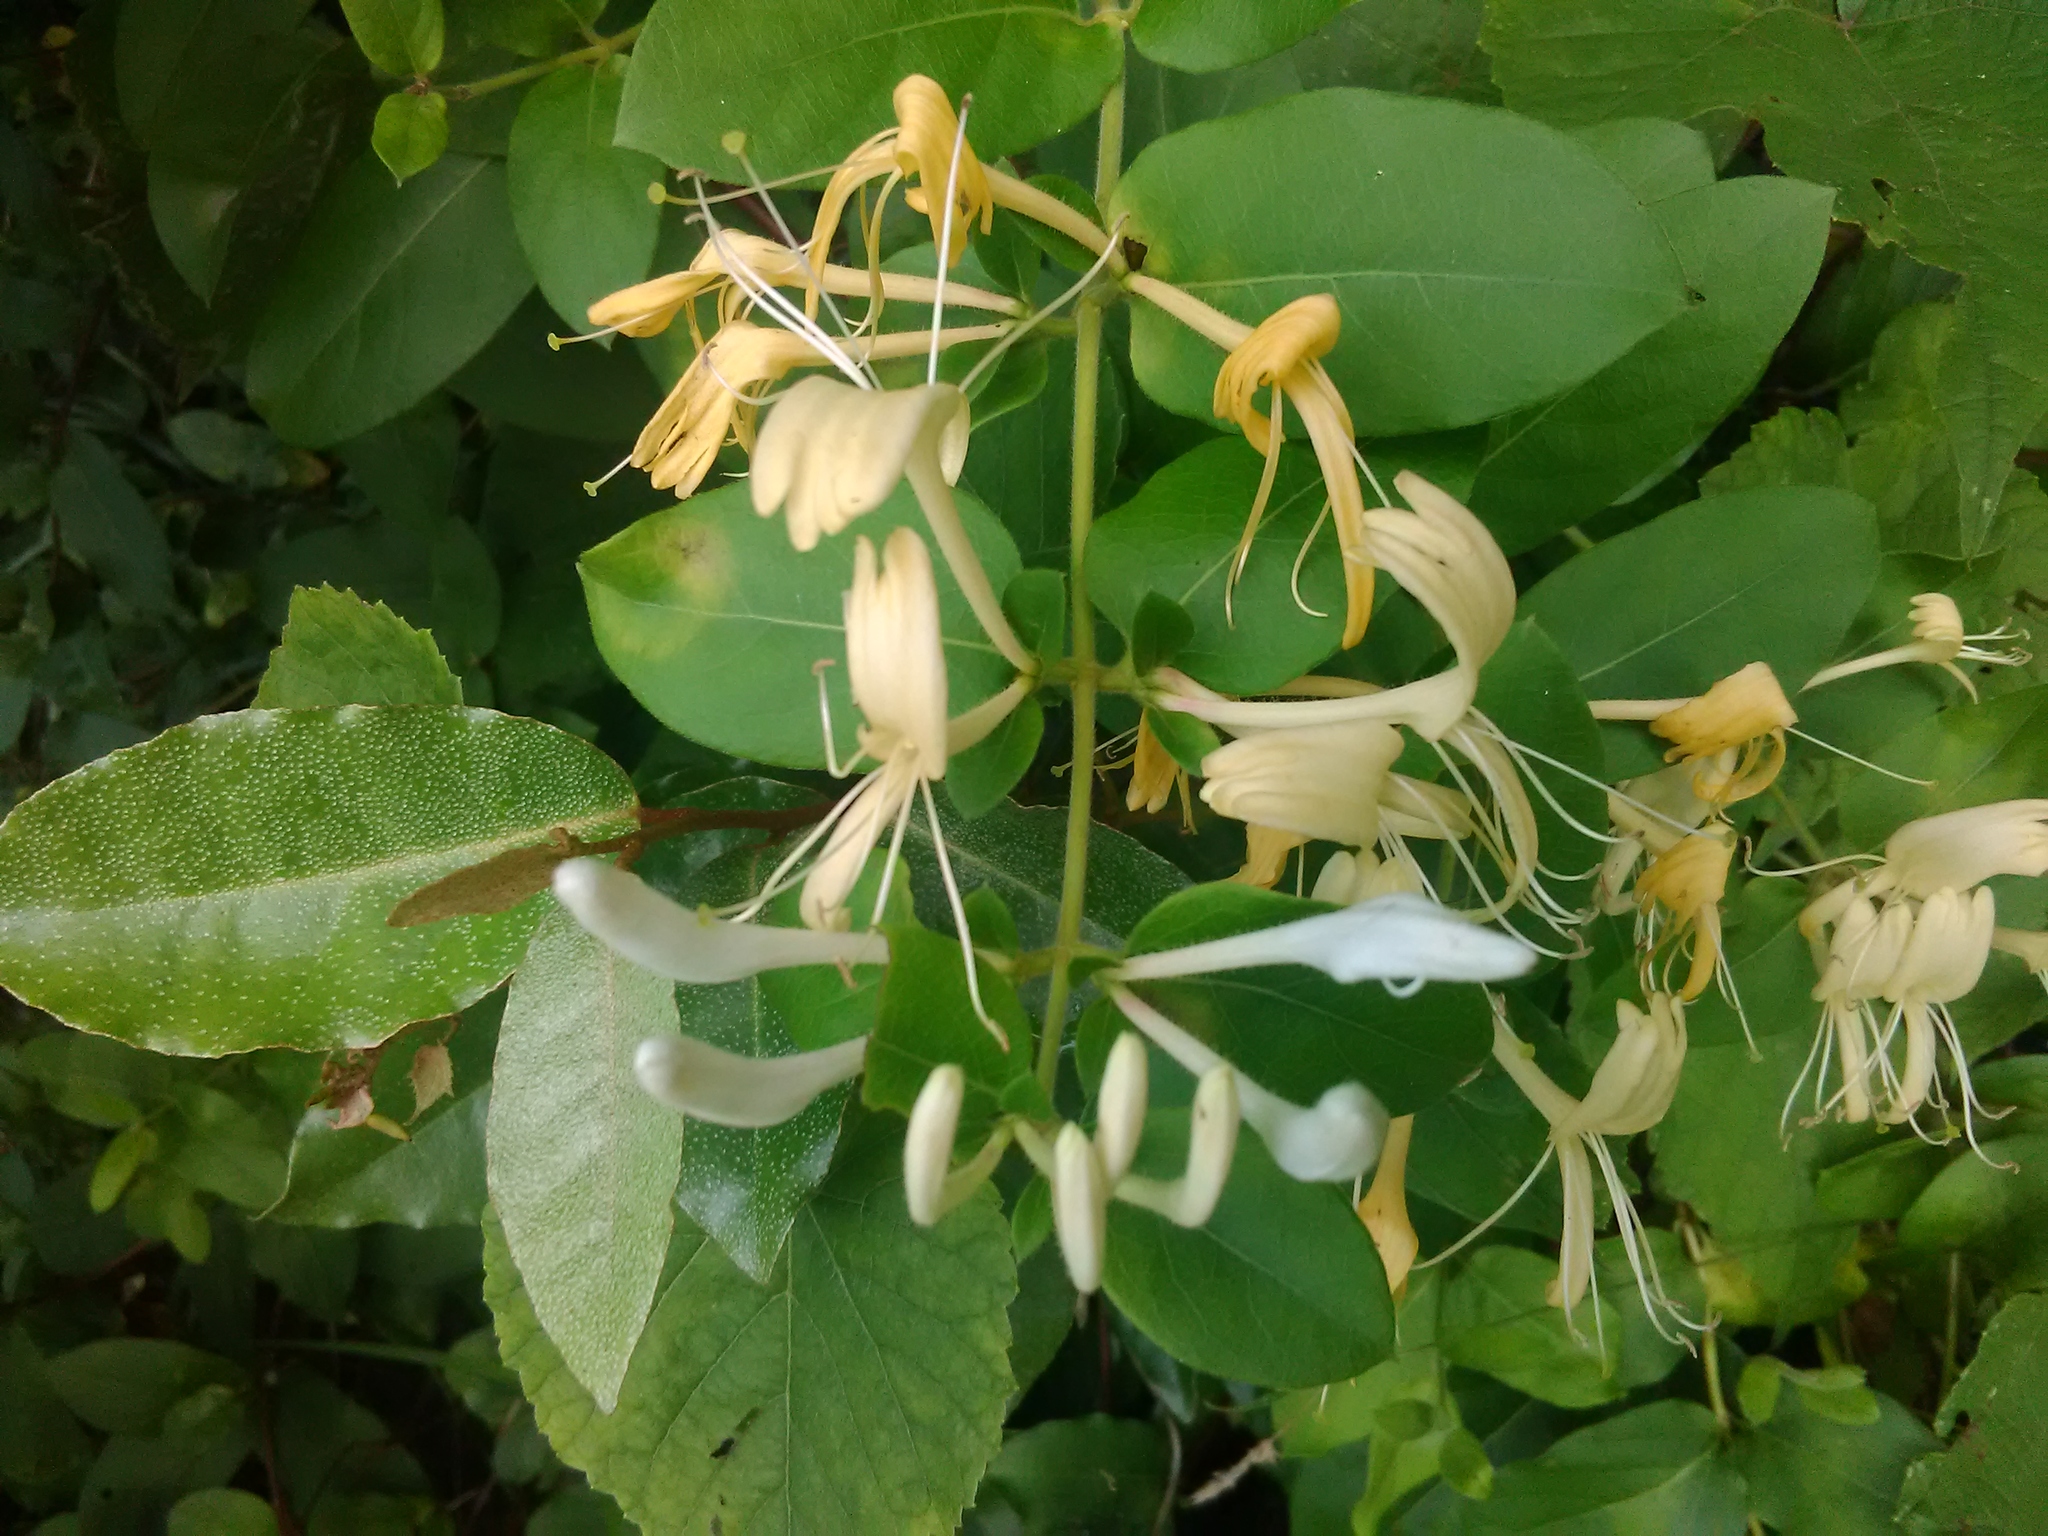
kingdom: Plantae
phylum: Tracheophyta
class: Magnoliopsida
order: Dipsacales
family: Caprifoliaceae
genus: Lonicera
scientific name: Lonicera japonica
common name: Japanese honeysuckle
